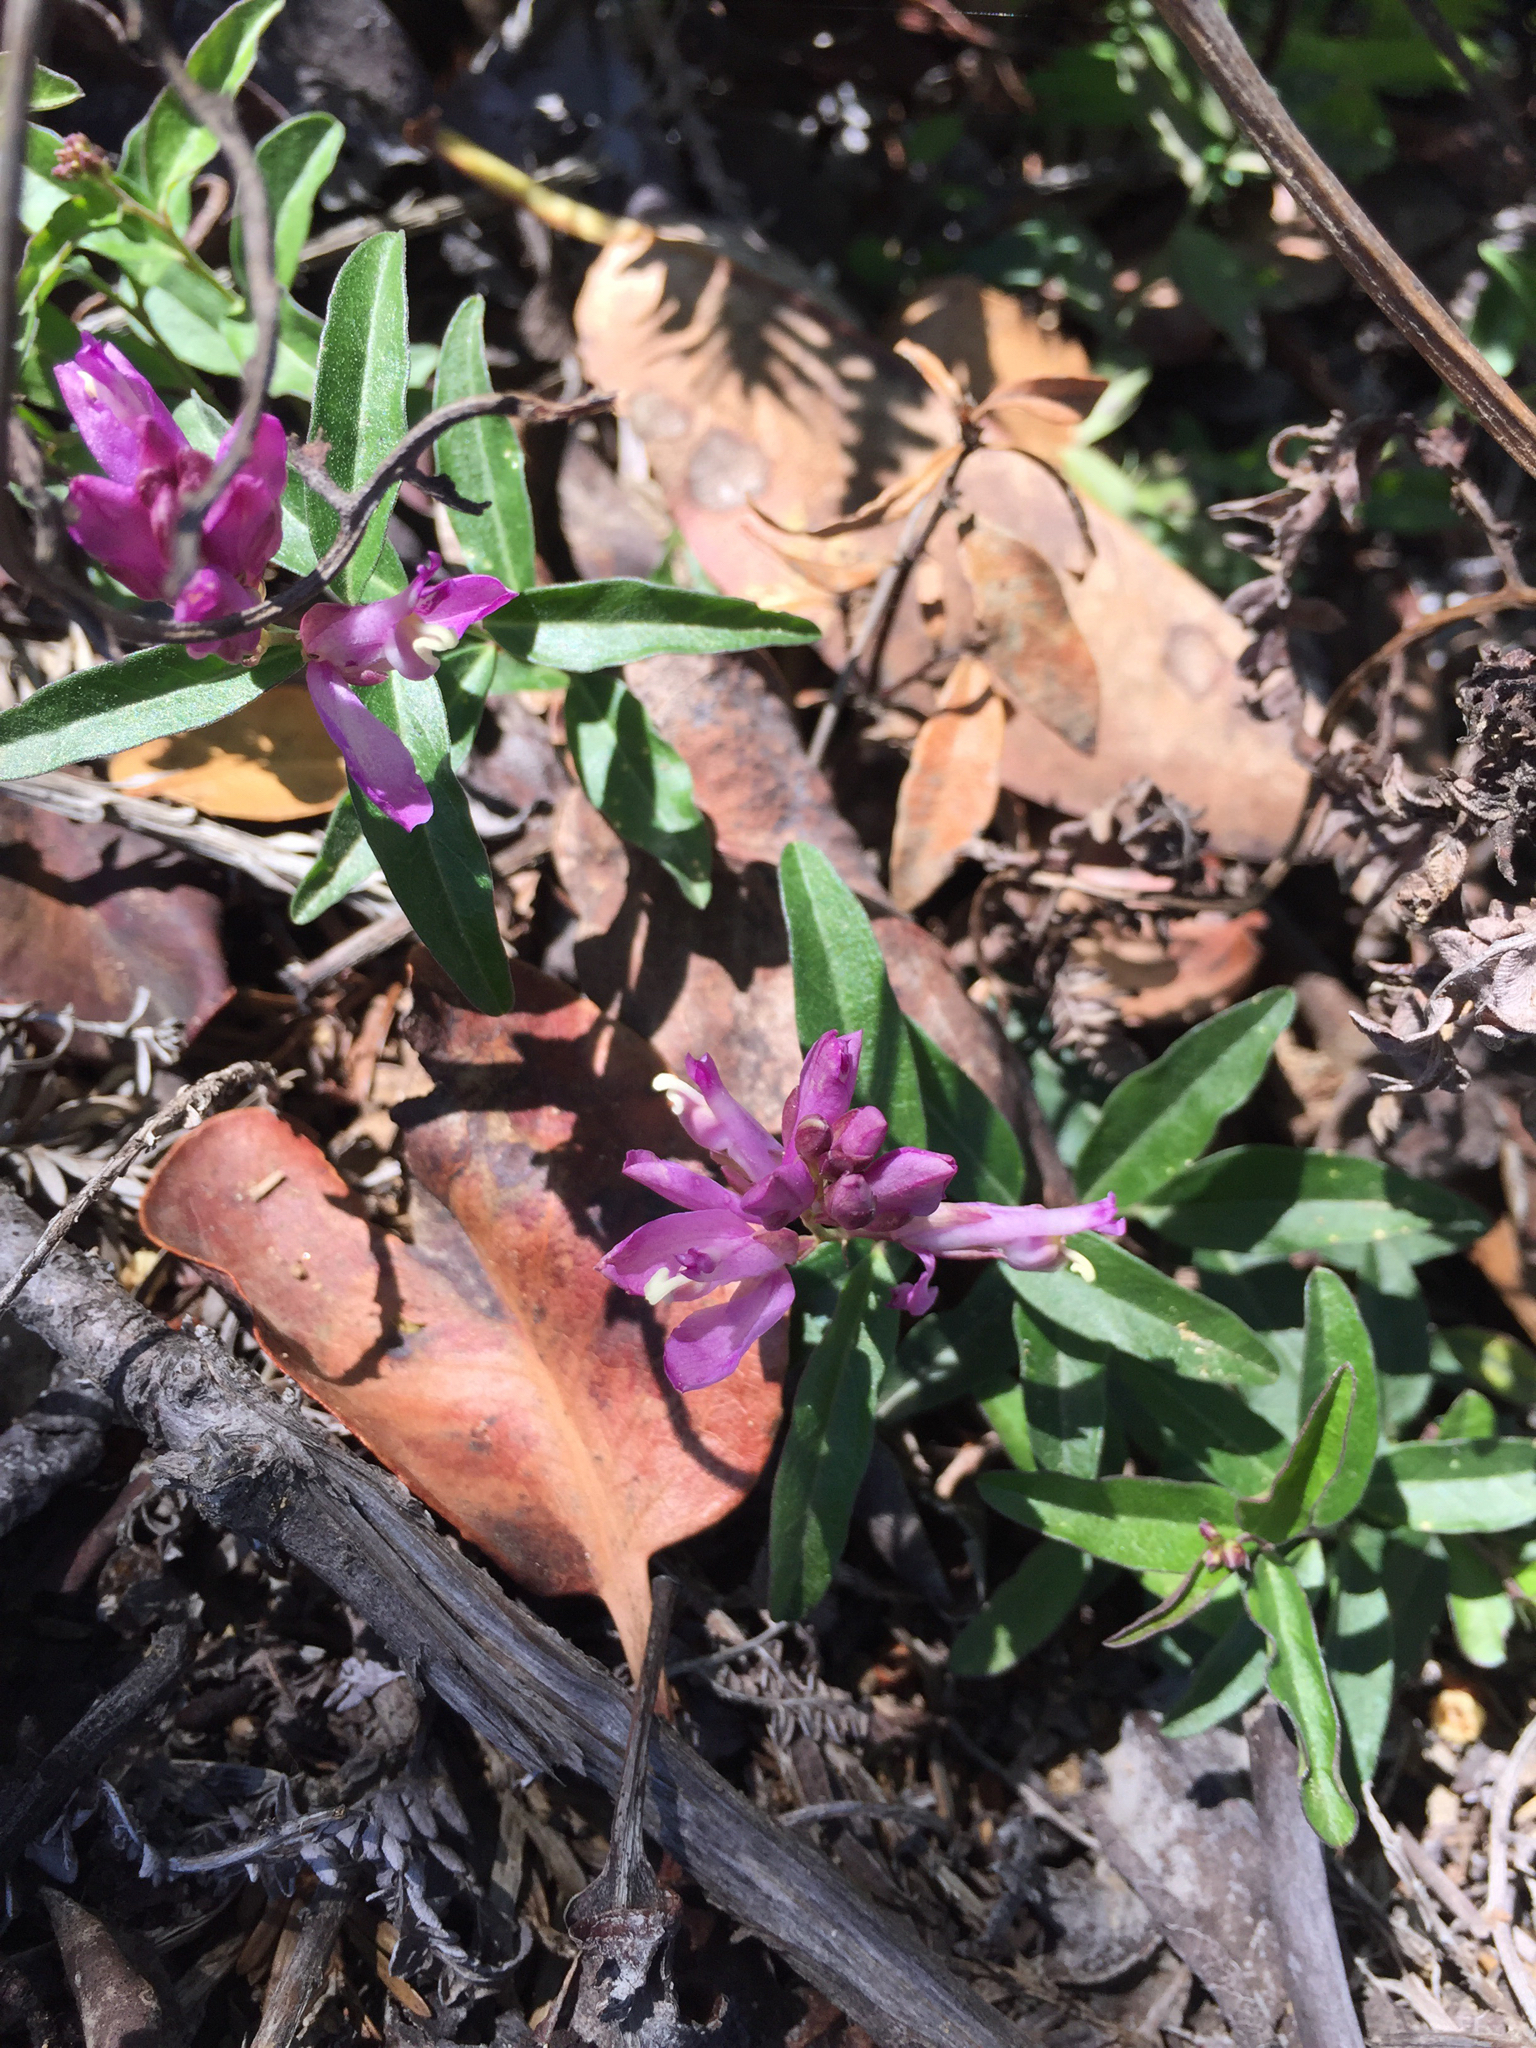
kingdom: Plantae
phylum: Tracheophyta
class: Magnoliopsida
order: Fabales
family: Polygalaceae
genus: Rhinotropis
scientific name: Rhinotropis californica
